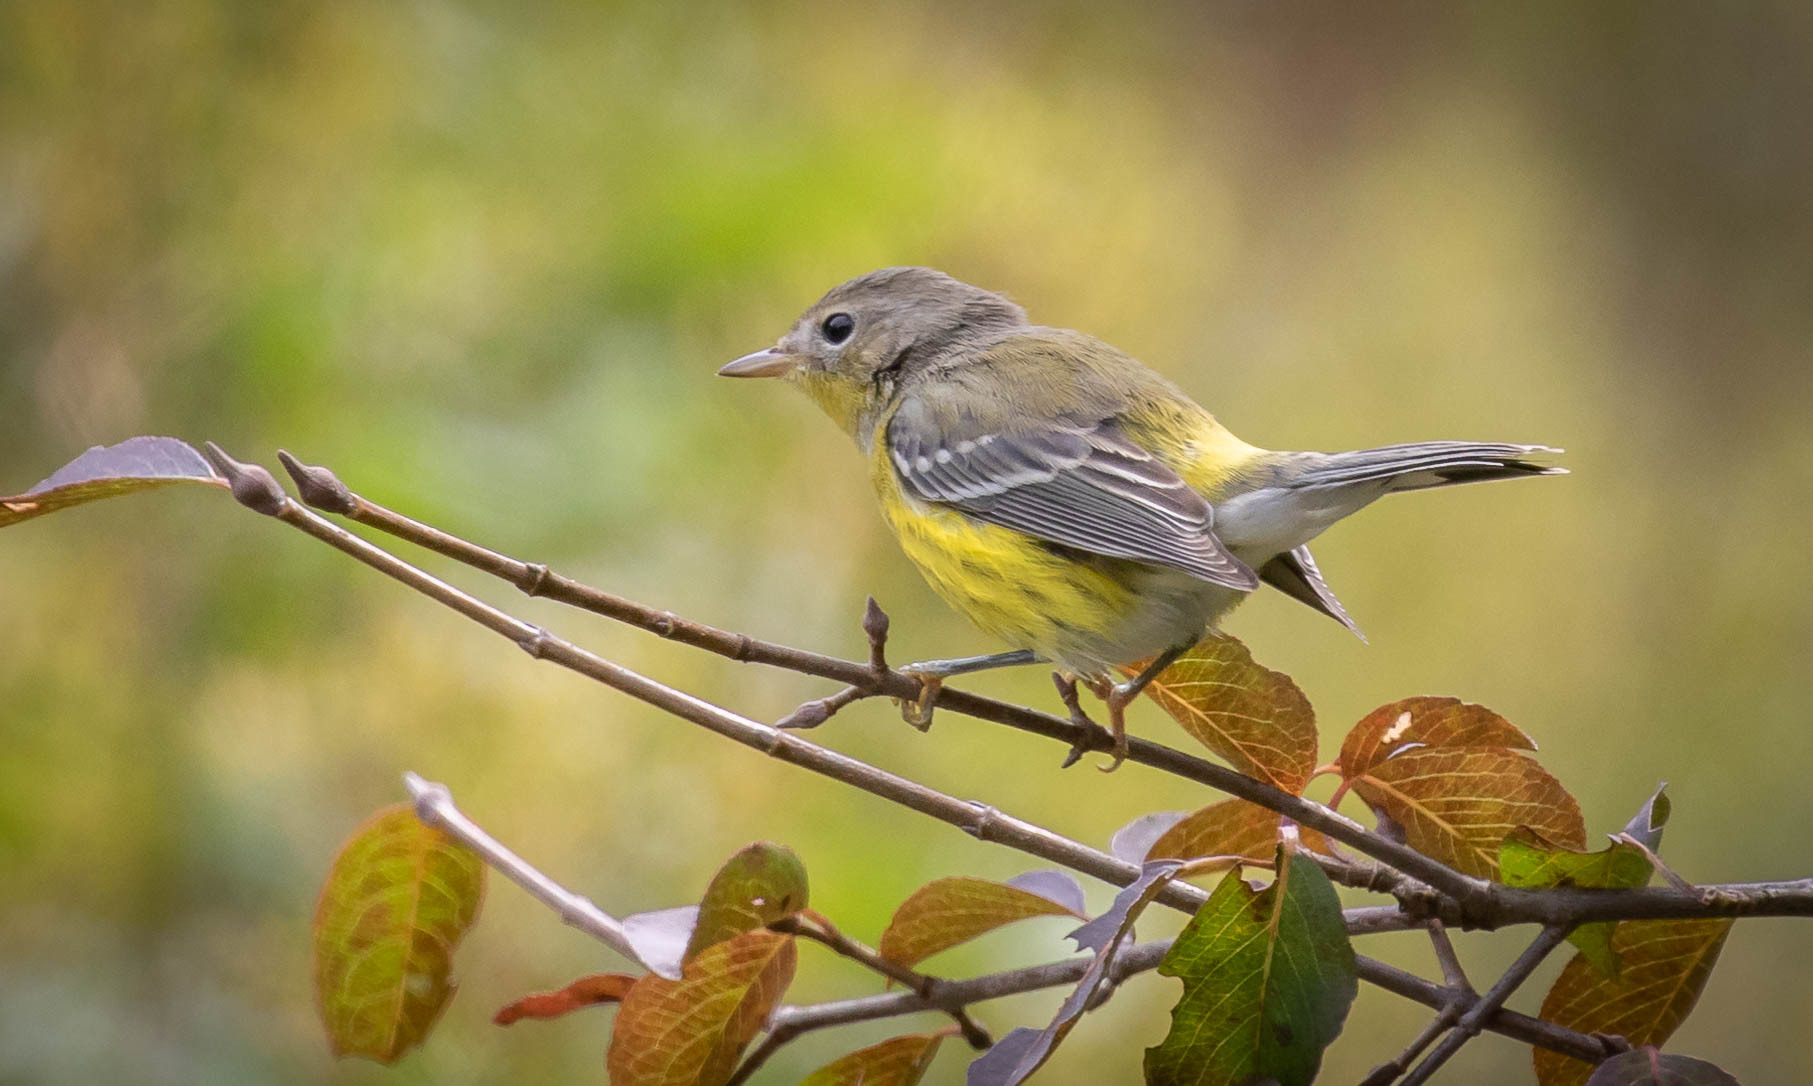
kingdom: Animalia
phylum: Chordata
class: Aves
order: Passeriformes
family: Parulidae
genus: Setophaga
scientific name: Setophaga magnolia
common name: Magnolia warbler
